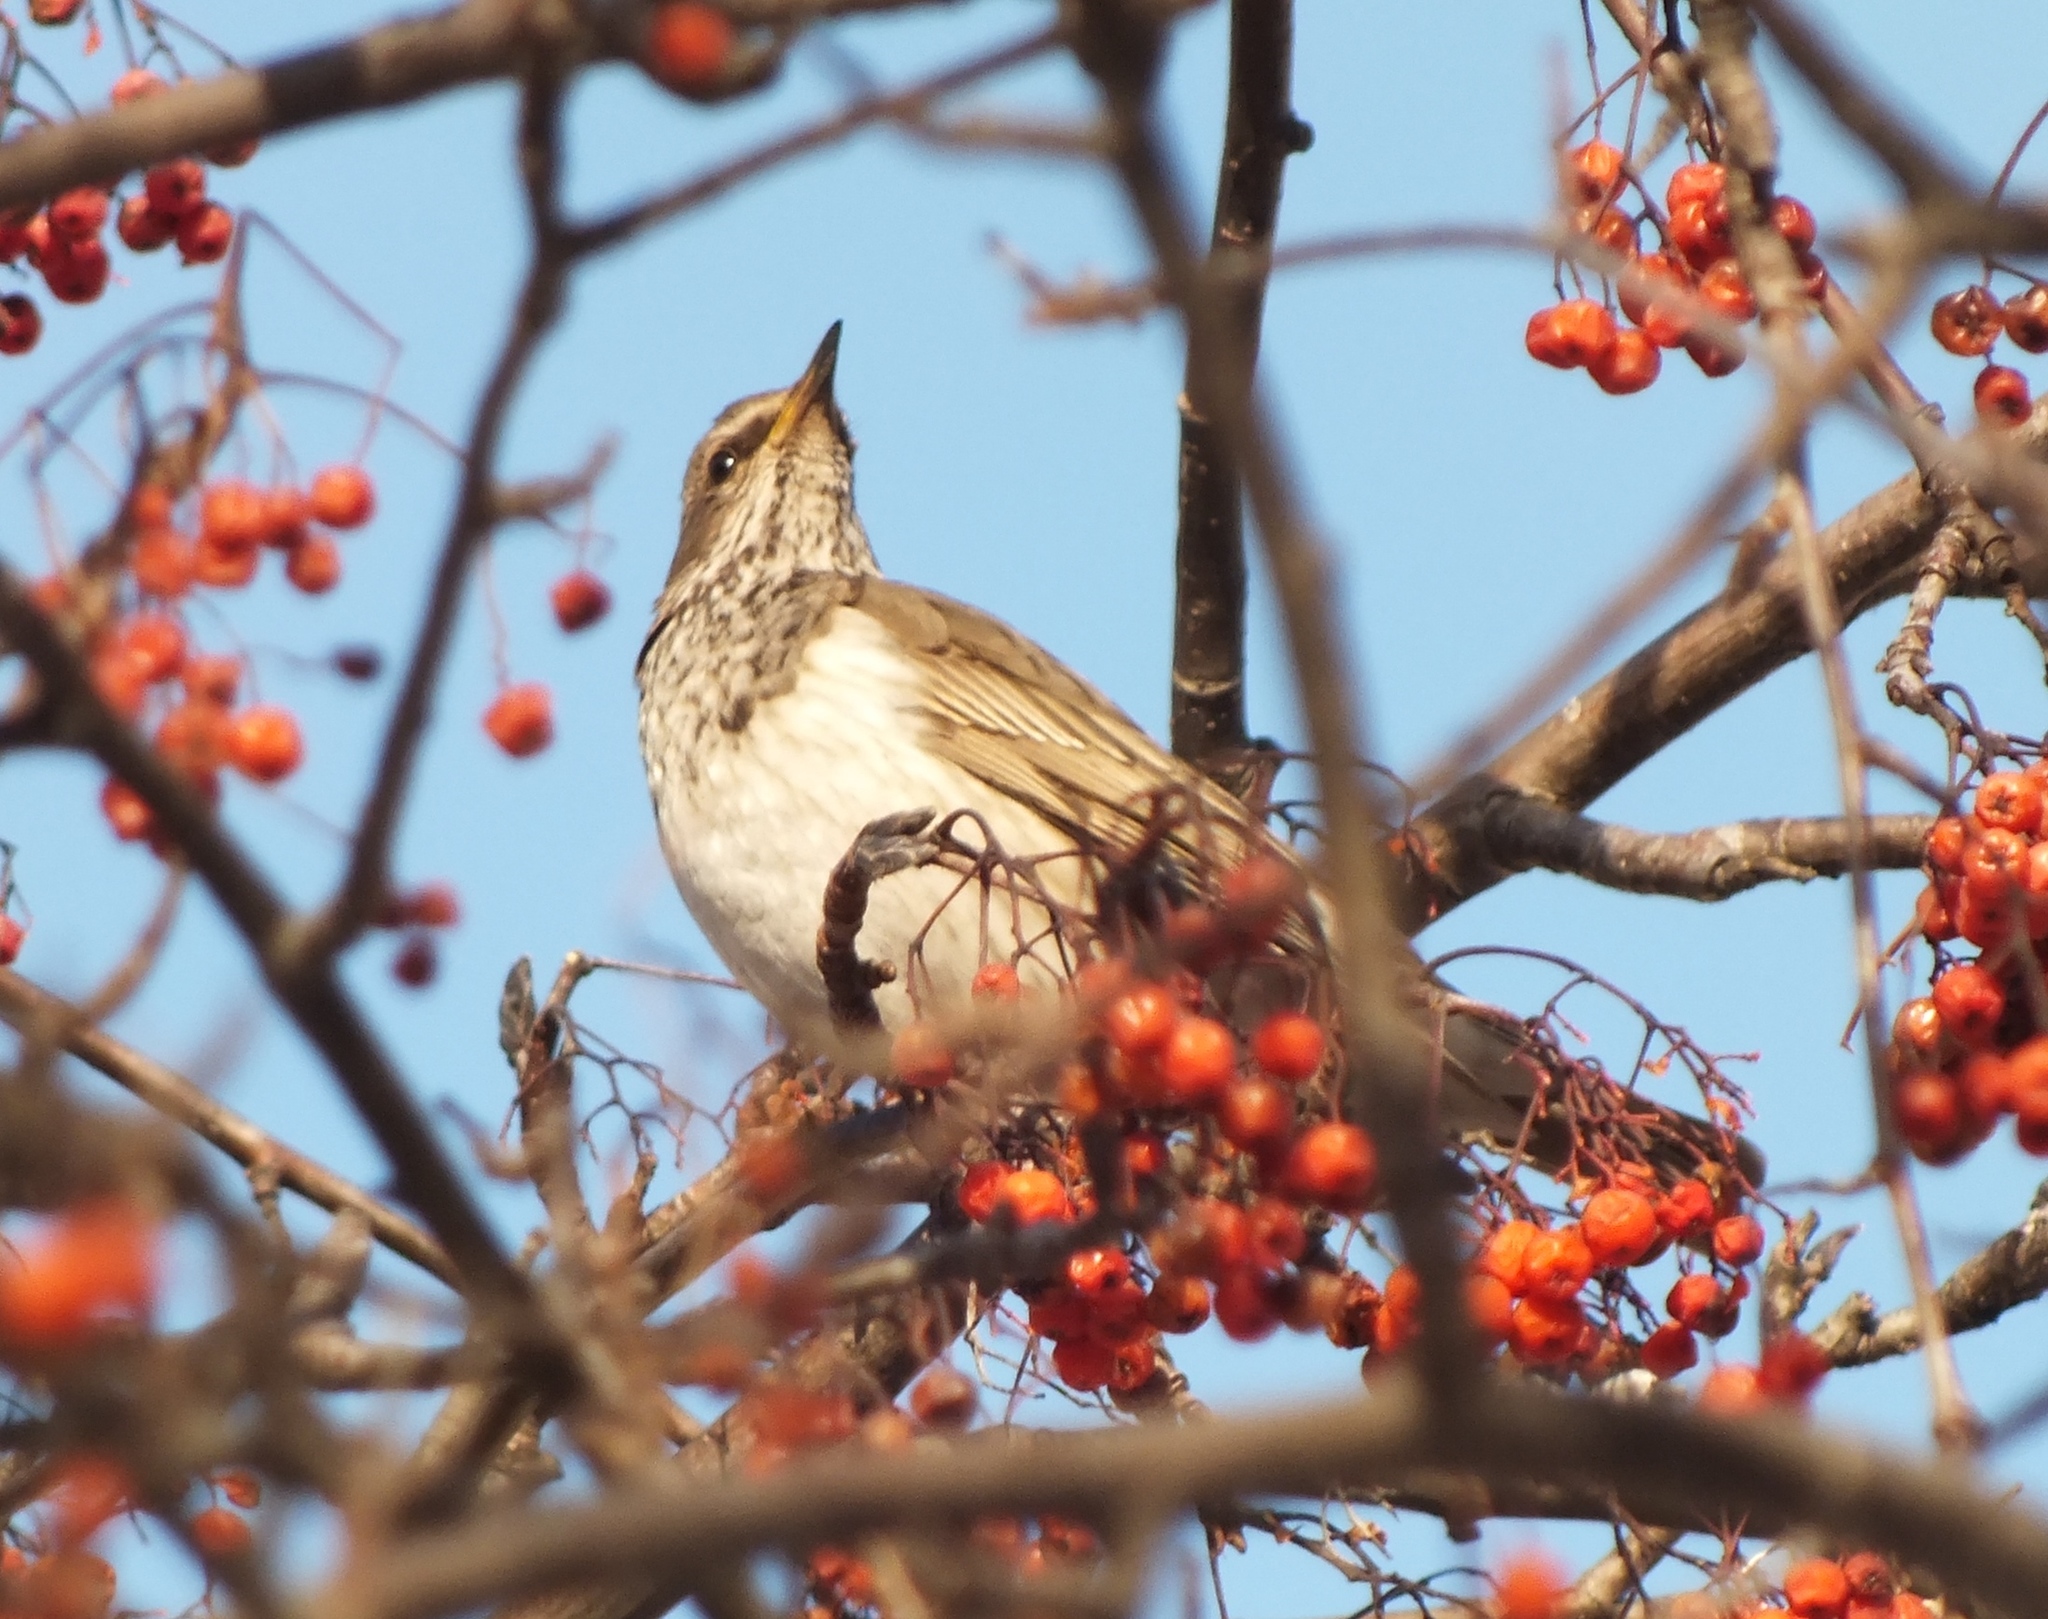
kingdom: Animalia
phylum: Chordata
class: Aves
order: Passeriformes
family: Turdidae
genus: Turdus
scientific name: Turdus pilaris
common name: Fieldfare
